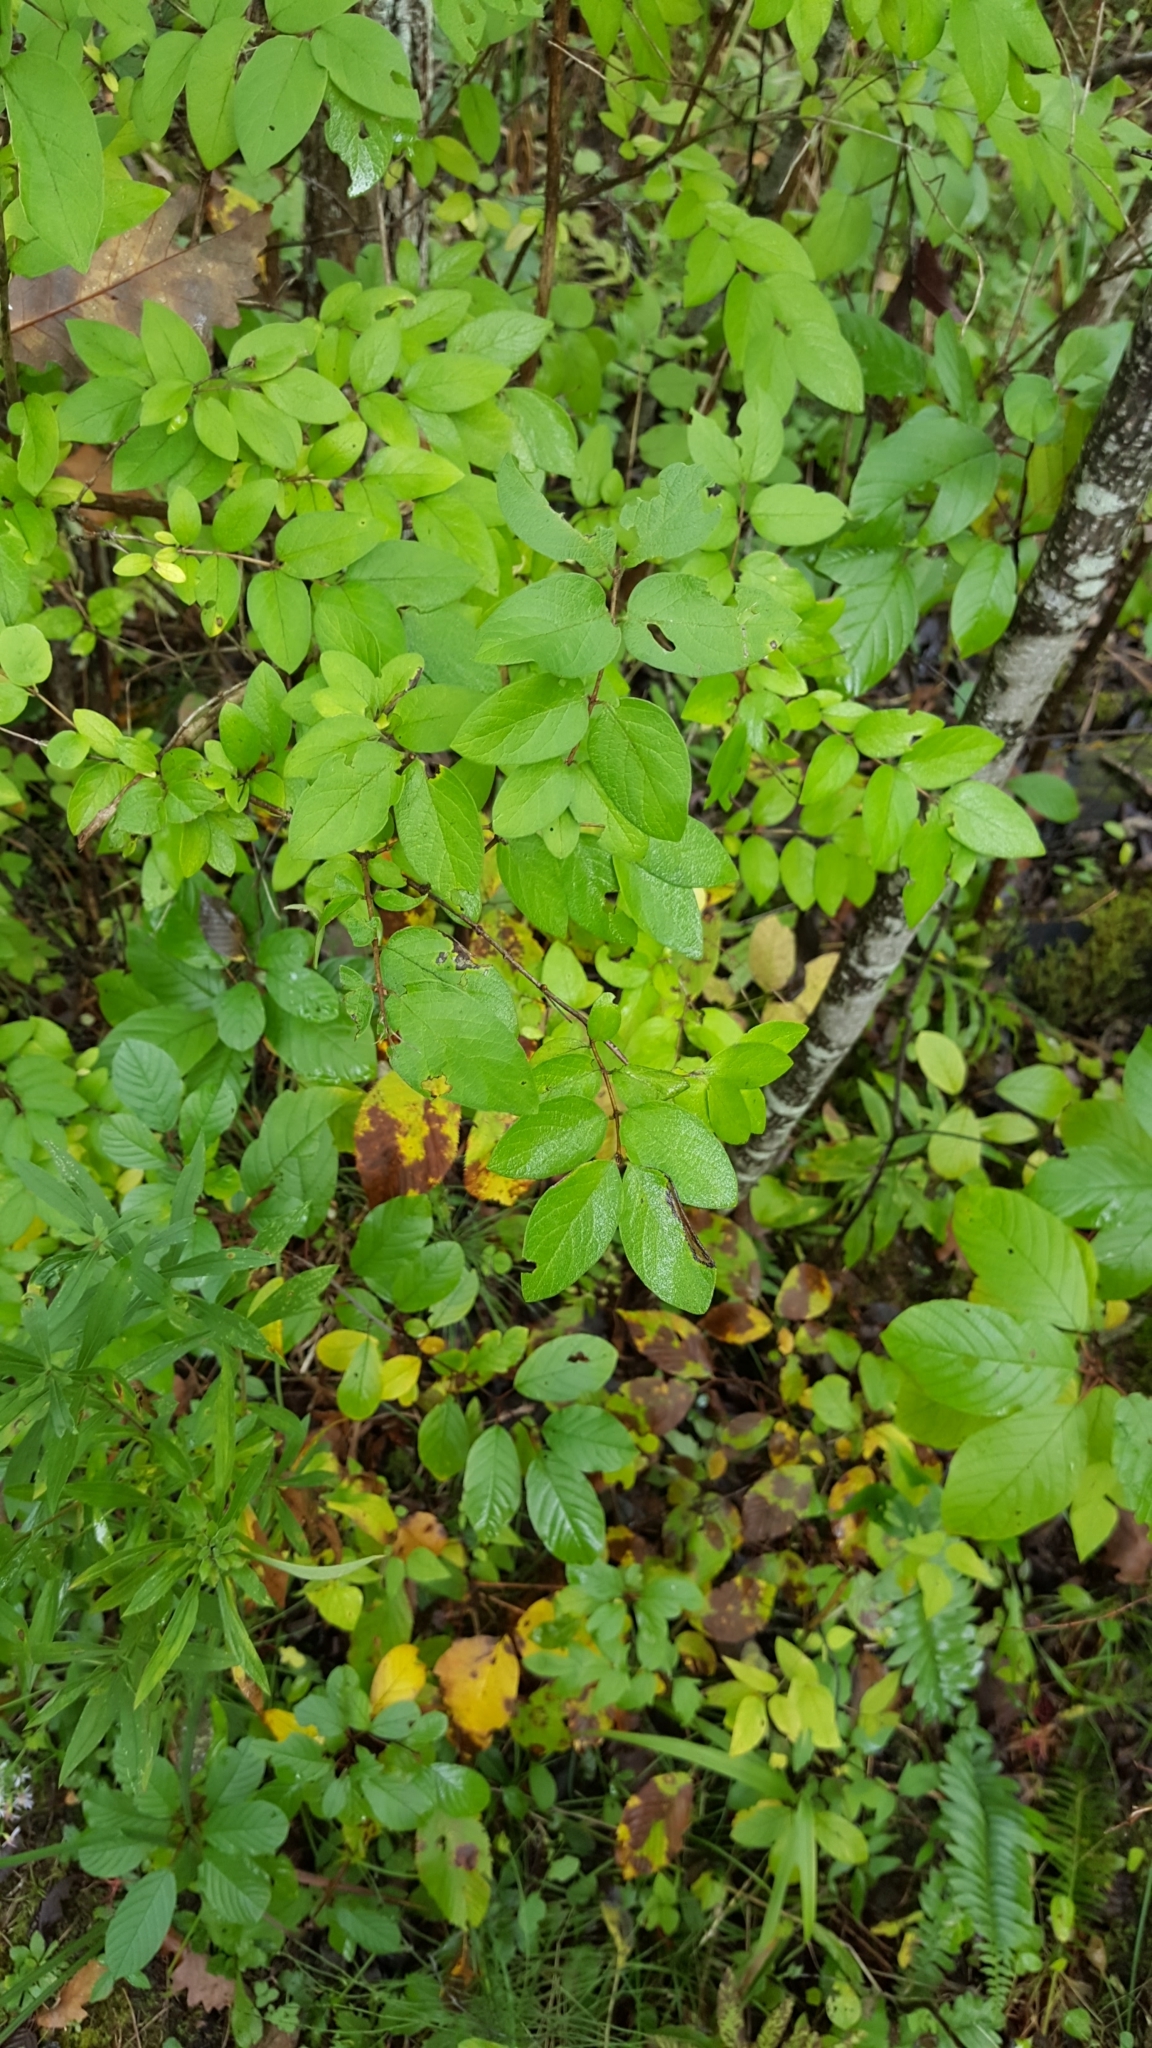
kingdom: Plantae
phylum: Tracheophyta
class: Magnoliopsida
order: Dipsacales
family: Caprifoliaceae
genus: Lonicera
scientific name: Lonicera tatarica
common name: Tatarian honeysuckle
